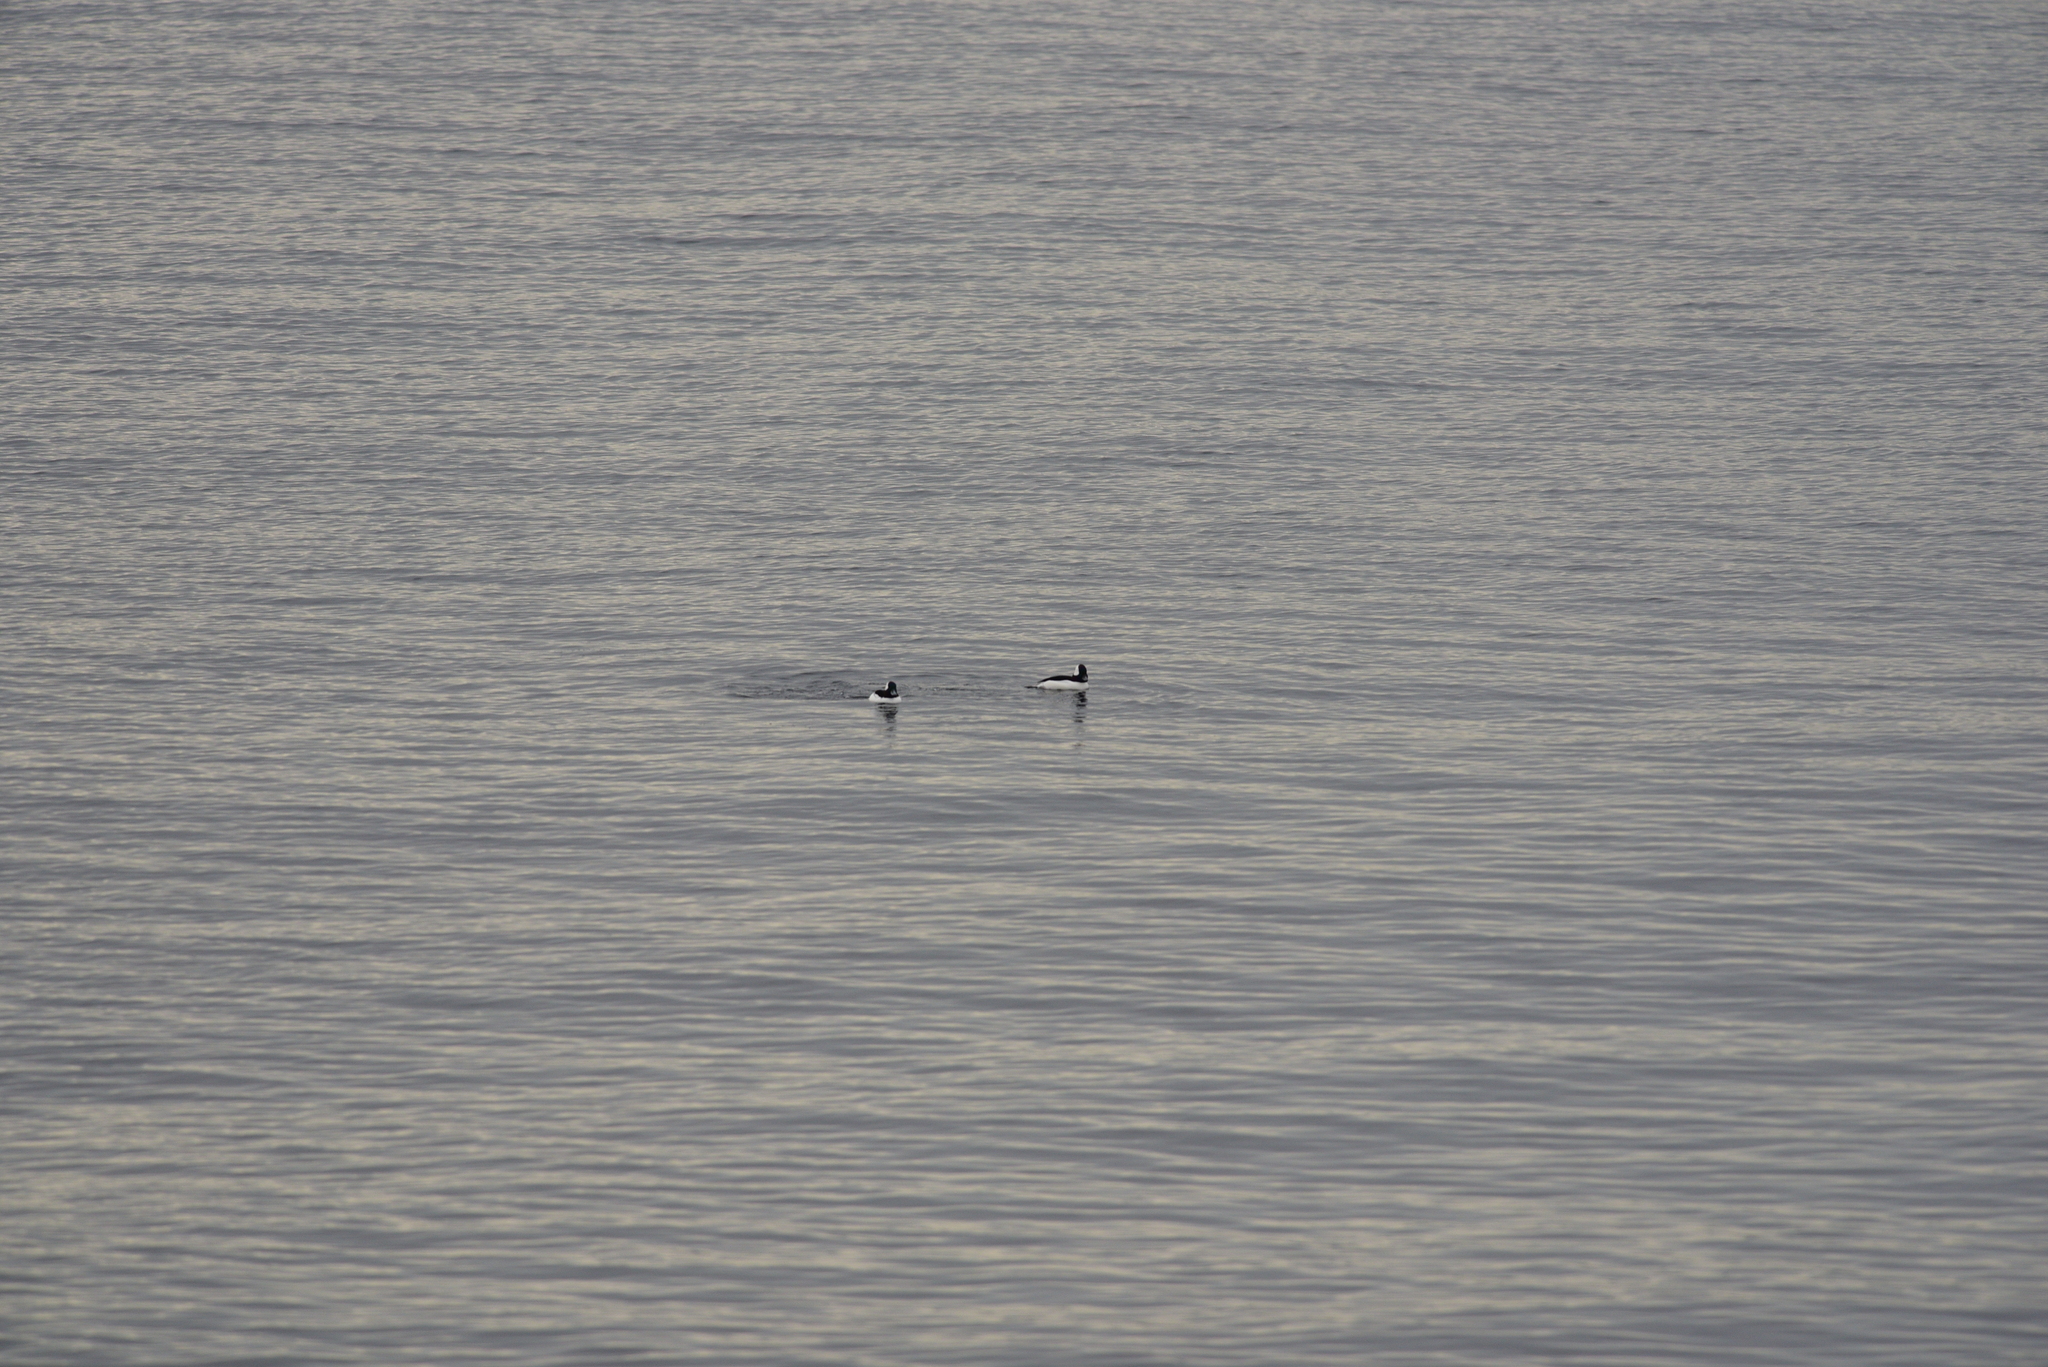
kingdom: Animalia
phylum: Chordata
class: Aves
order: Anseriformes
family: Anatidae
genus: Bucephala
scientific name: Bucephala albeola
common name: Bufflehead
